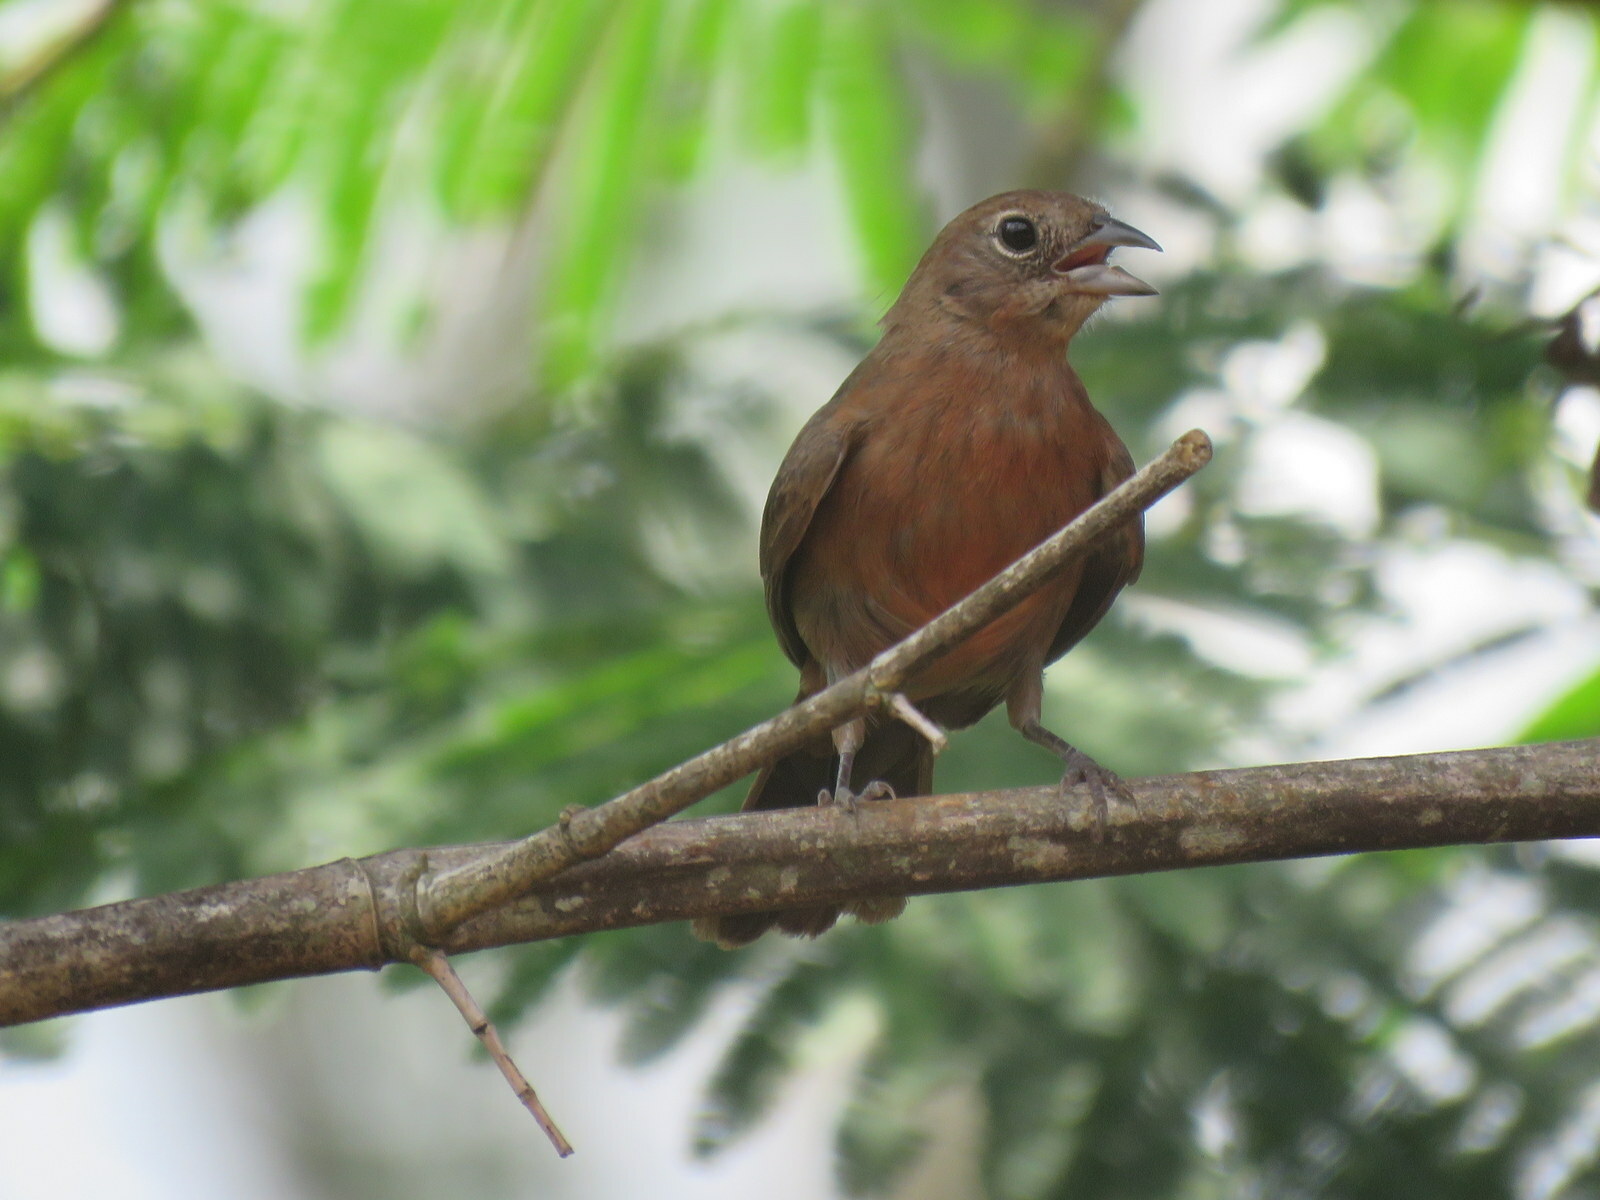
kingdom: Animalia
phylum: Chordata
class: Aves
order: Passeriformes
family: Thraupidae
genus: Coryphospingus
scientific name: Coryphospingus cucullatus
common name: Red pileated finch
